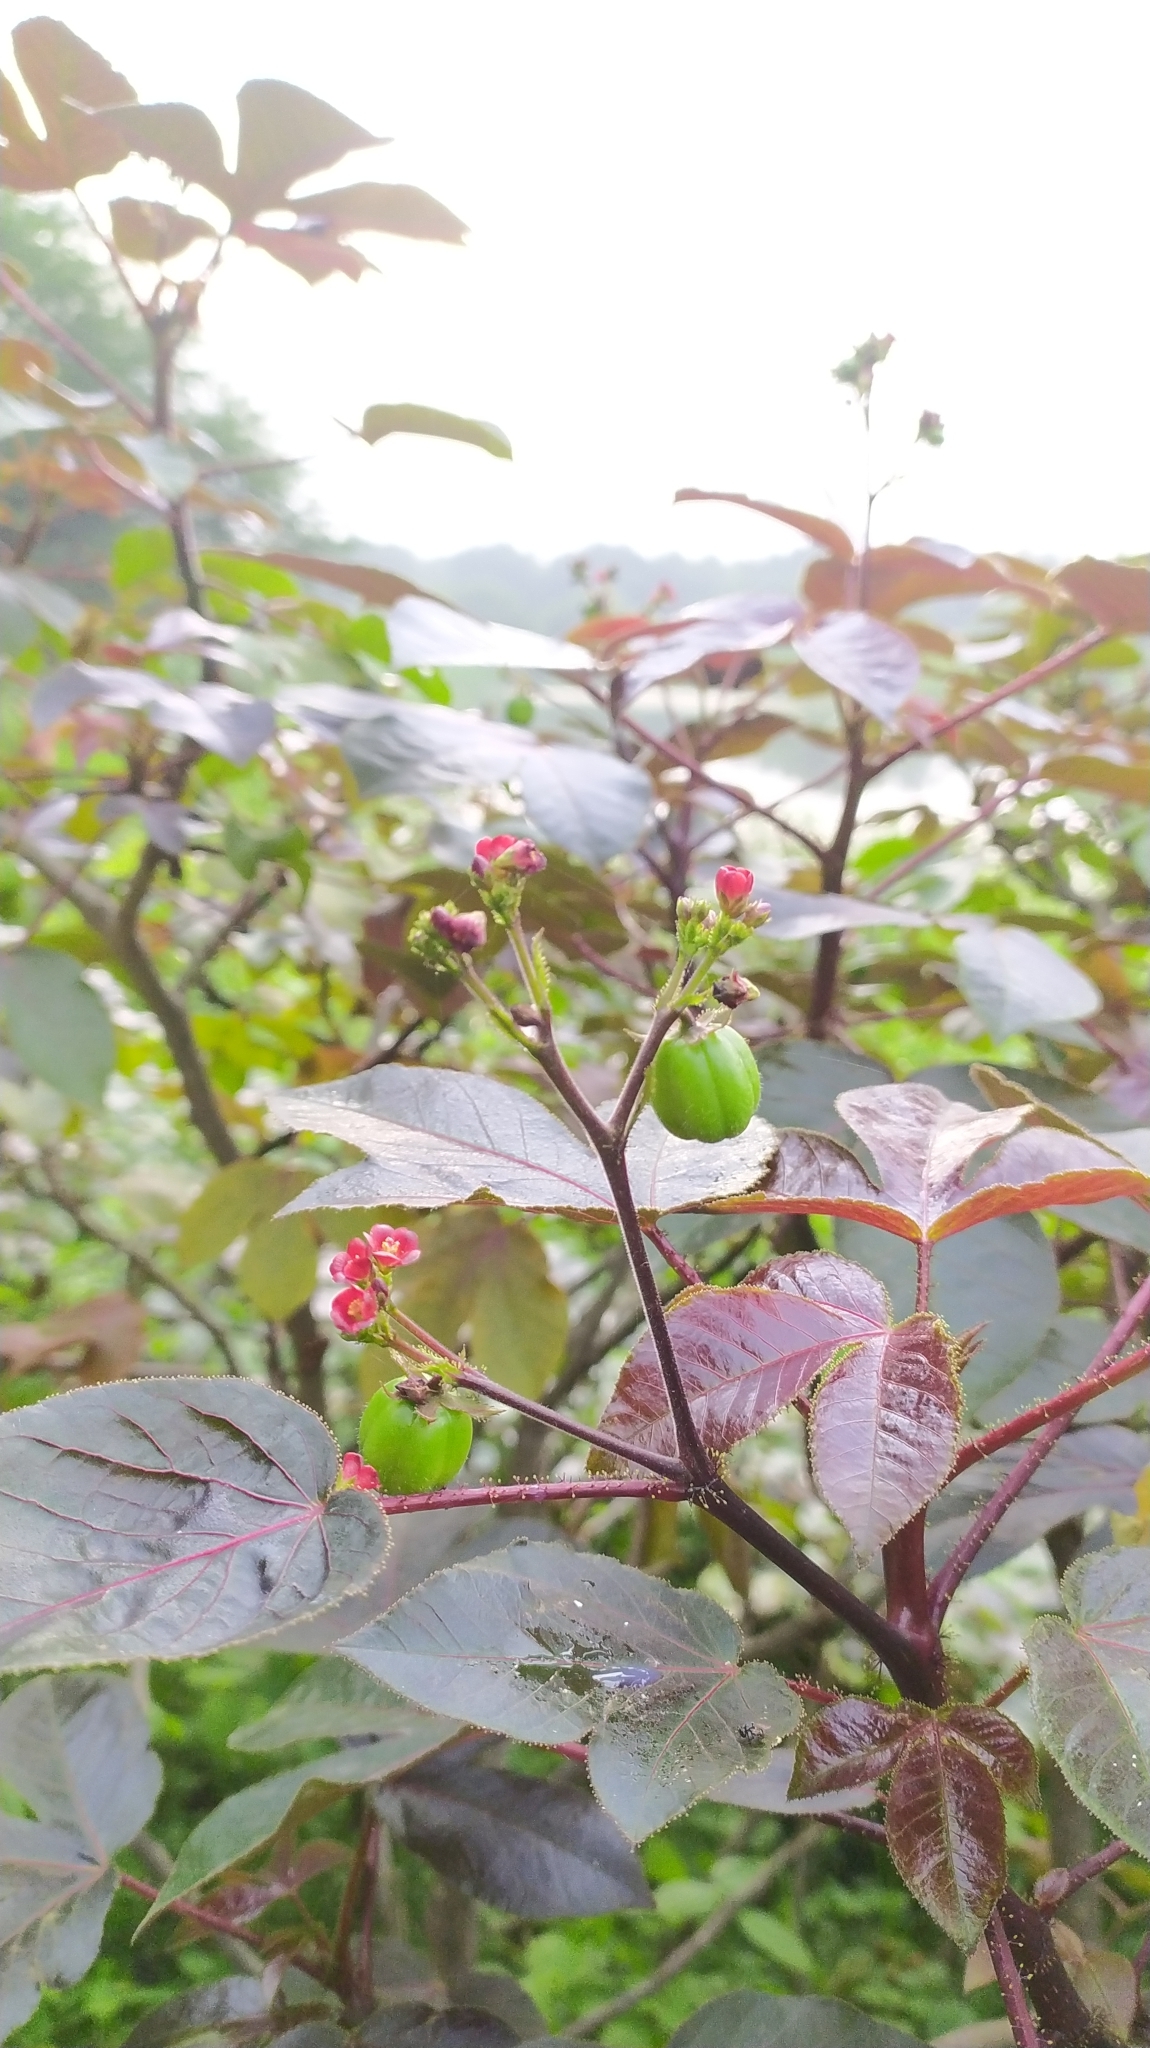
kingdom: Plantae
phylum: Tracheophyta
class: Magnoliopsida
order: Malpighiales
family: Euphorbiaceae
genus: Jatropha
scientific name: Jatropha gossypiifolia
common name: Bellyache bush
